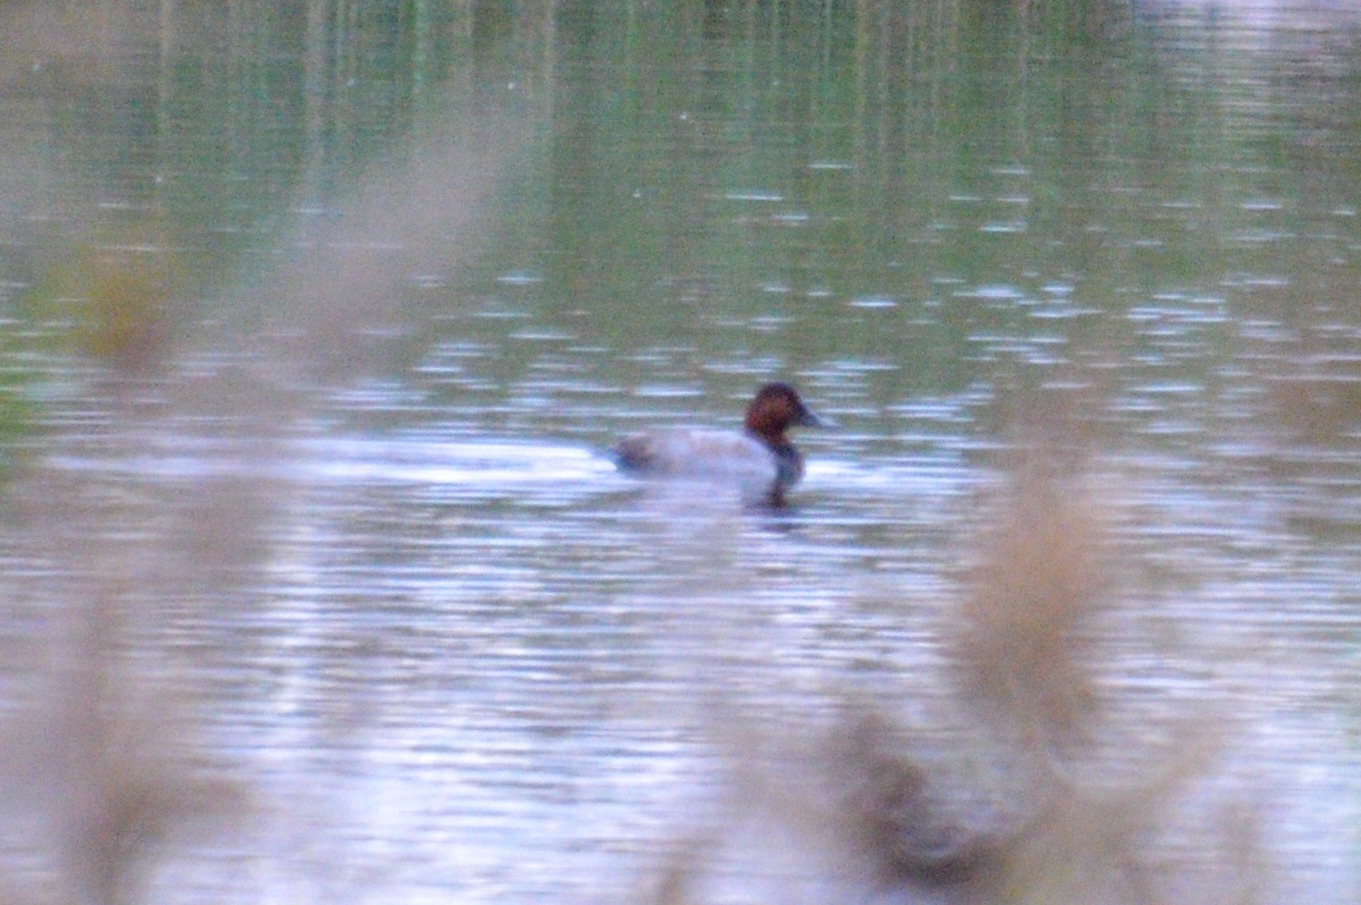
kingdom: Animalia
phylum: Chordata
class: Aves
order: Anseriformes
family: Anatidae
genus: Aythya
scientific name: Aythya ferina
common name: Common pochard
